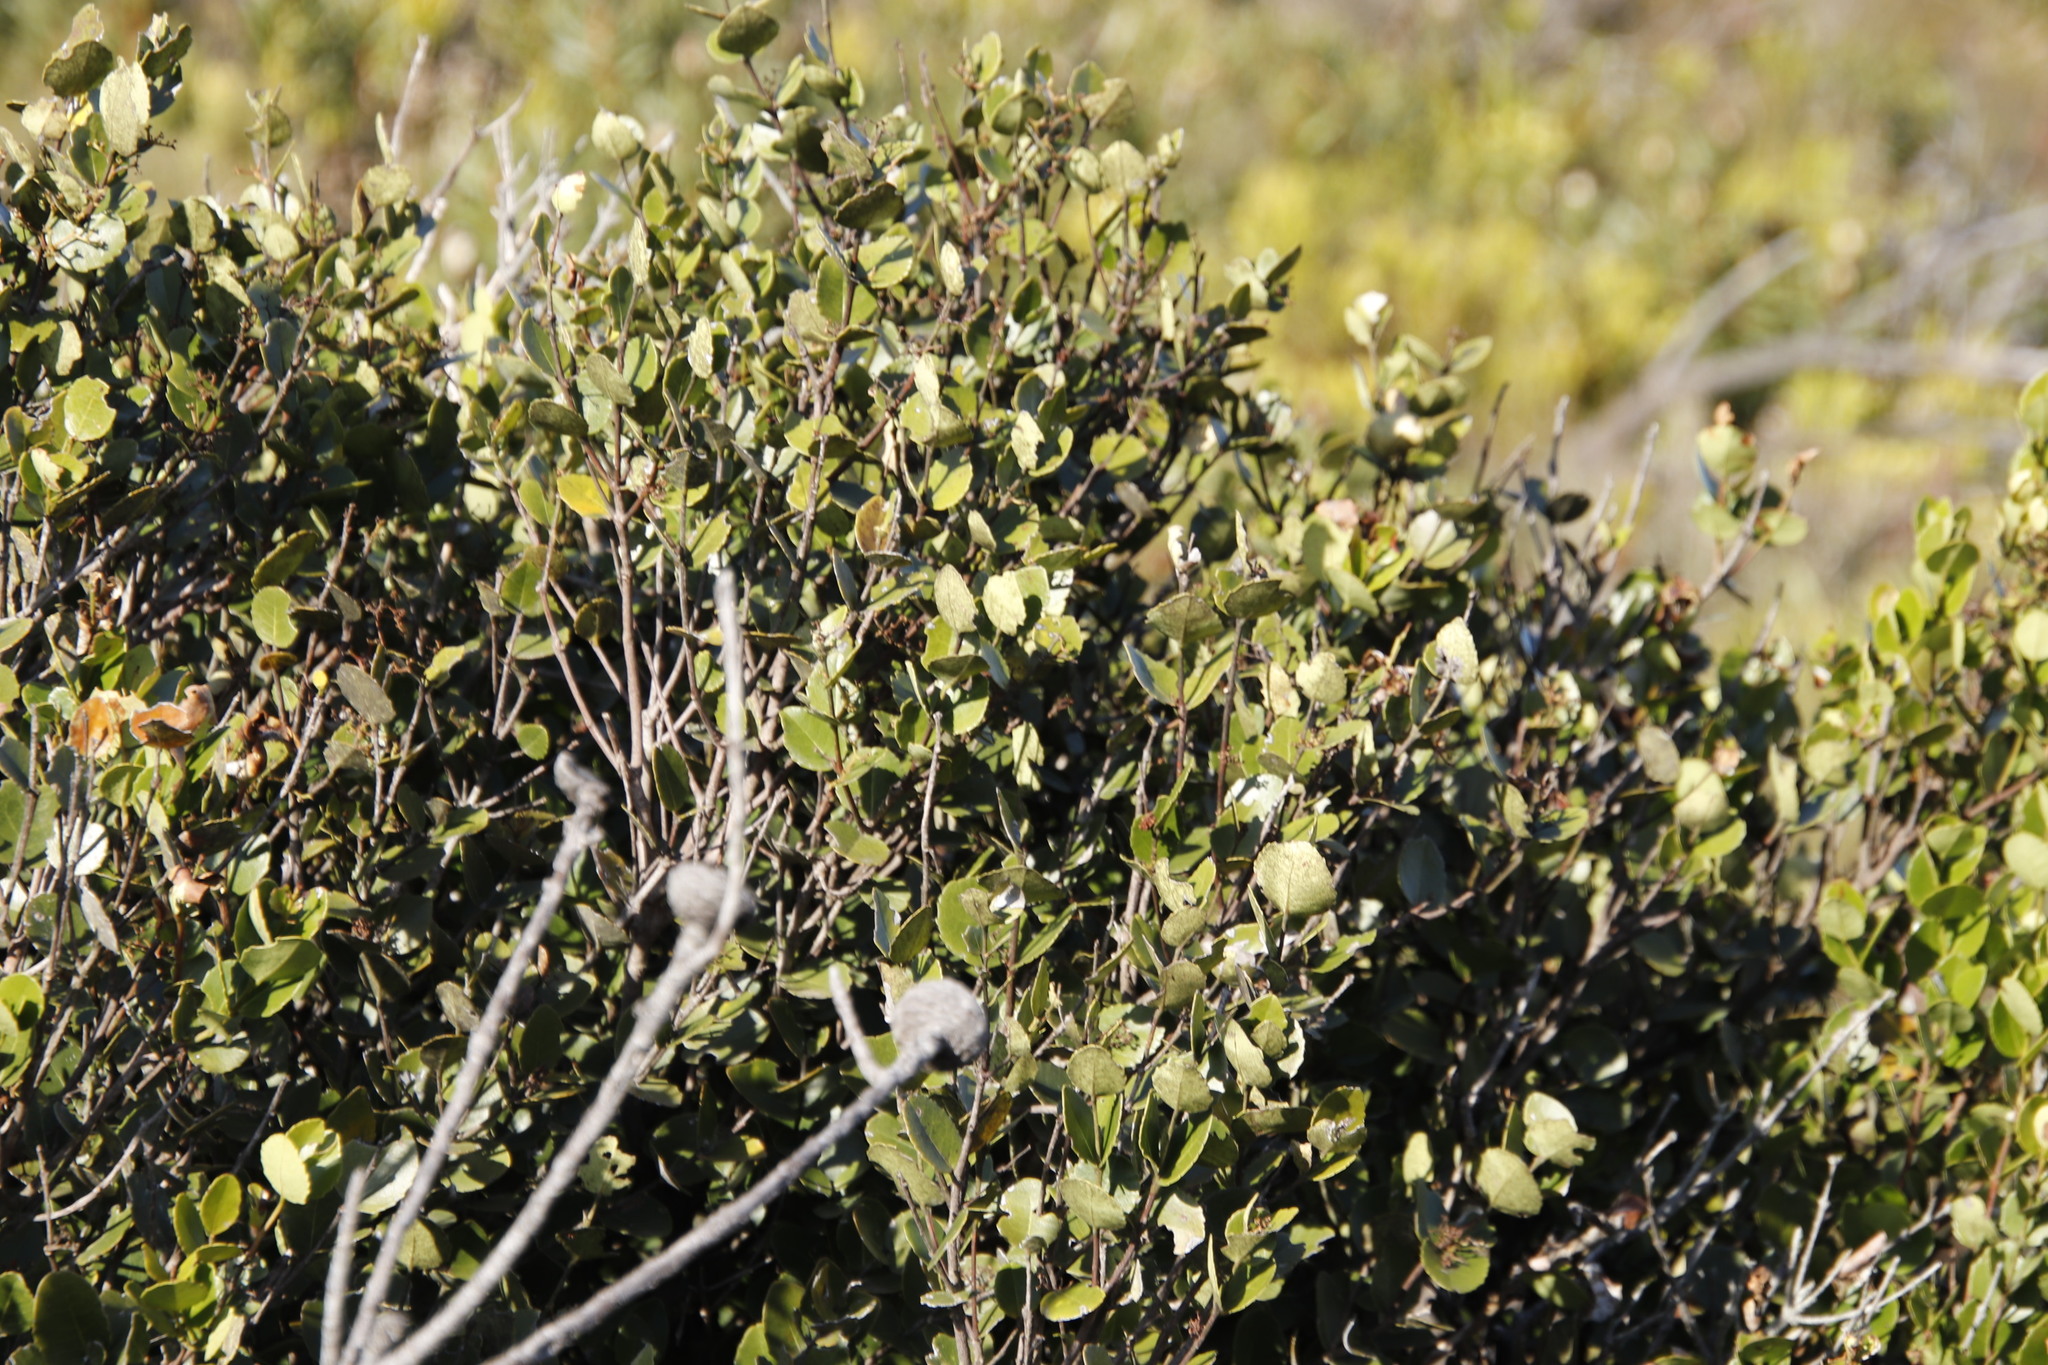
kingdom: Plantae
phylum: Tracheophyta
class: Magnoliopsida
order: Celastrales
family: Celastraceae
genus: Cassine
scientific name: Cassine peragua
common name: Cape saffron
